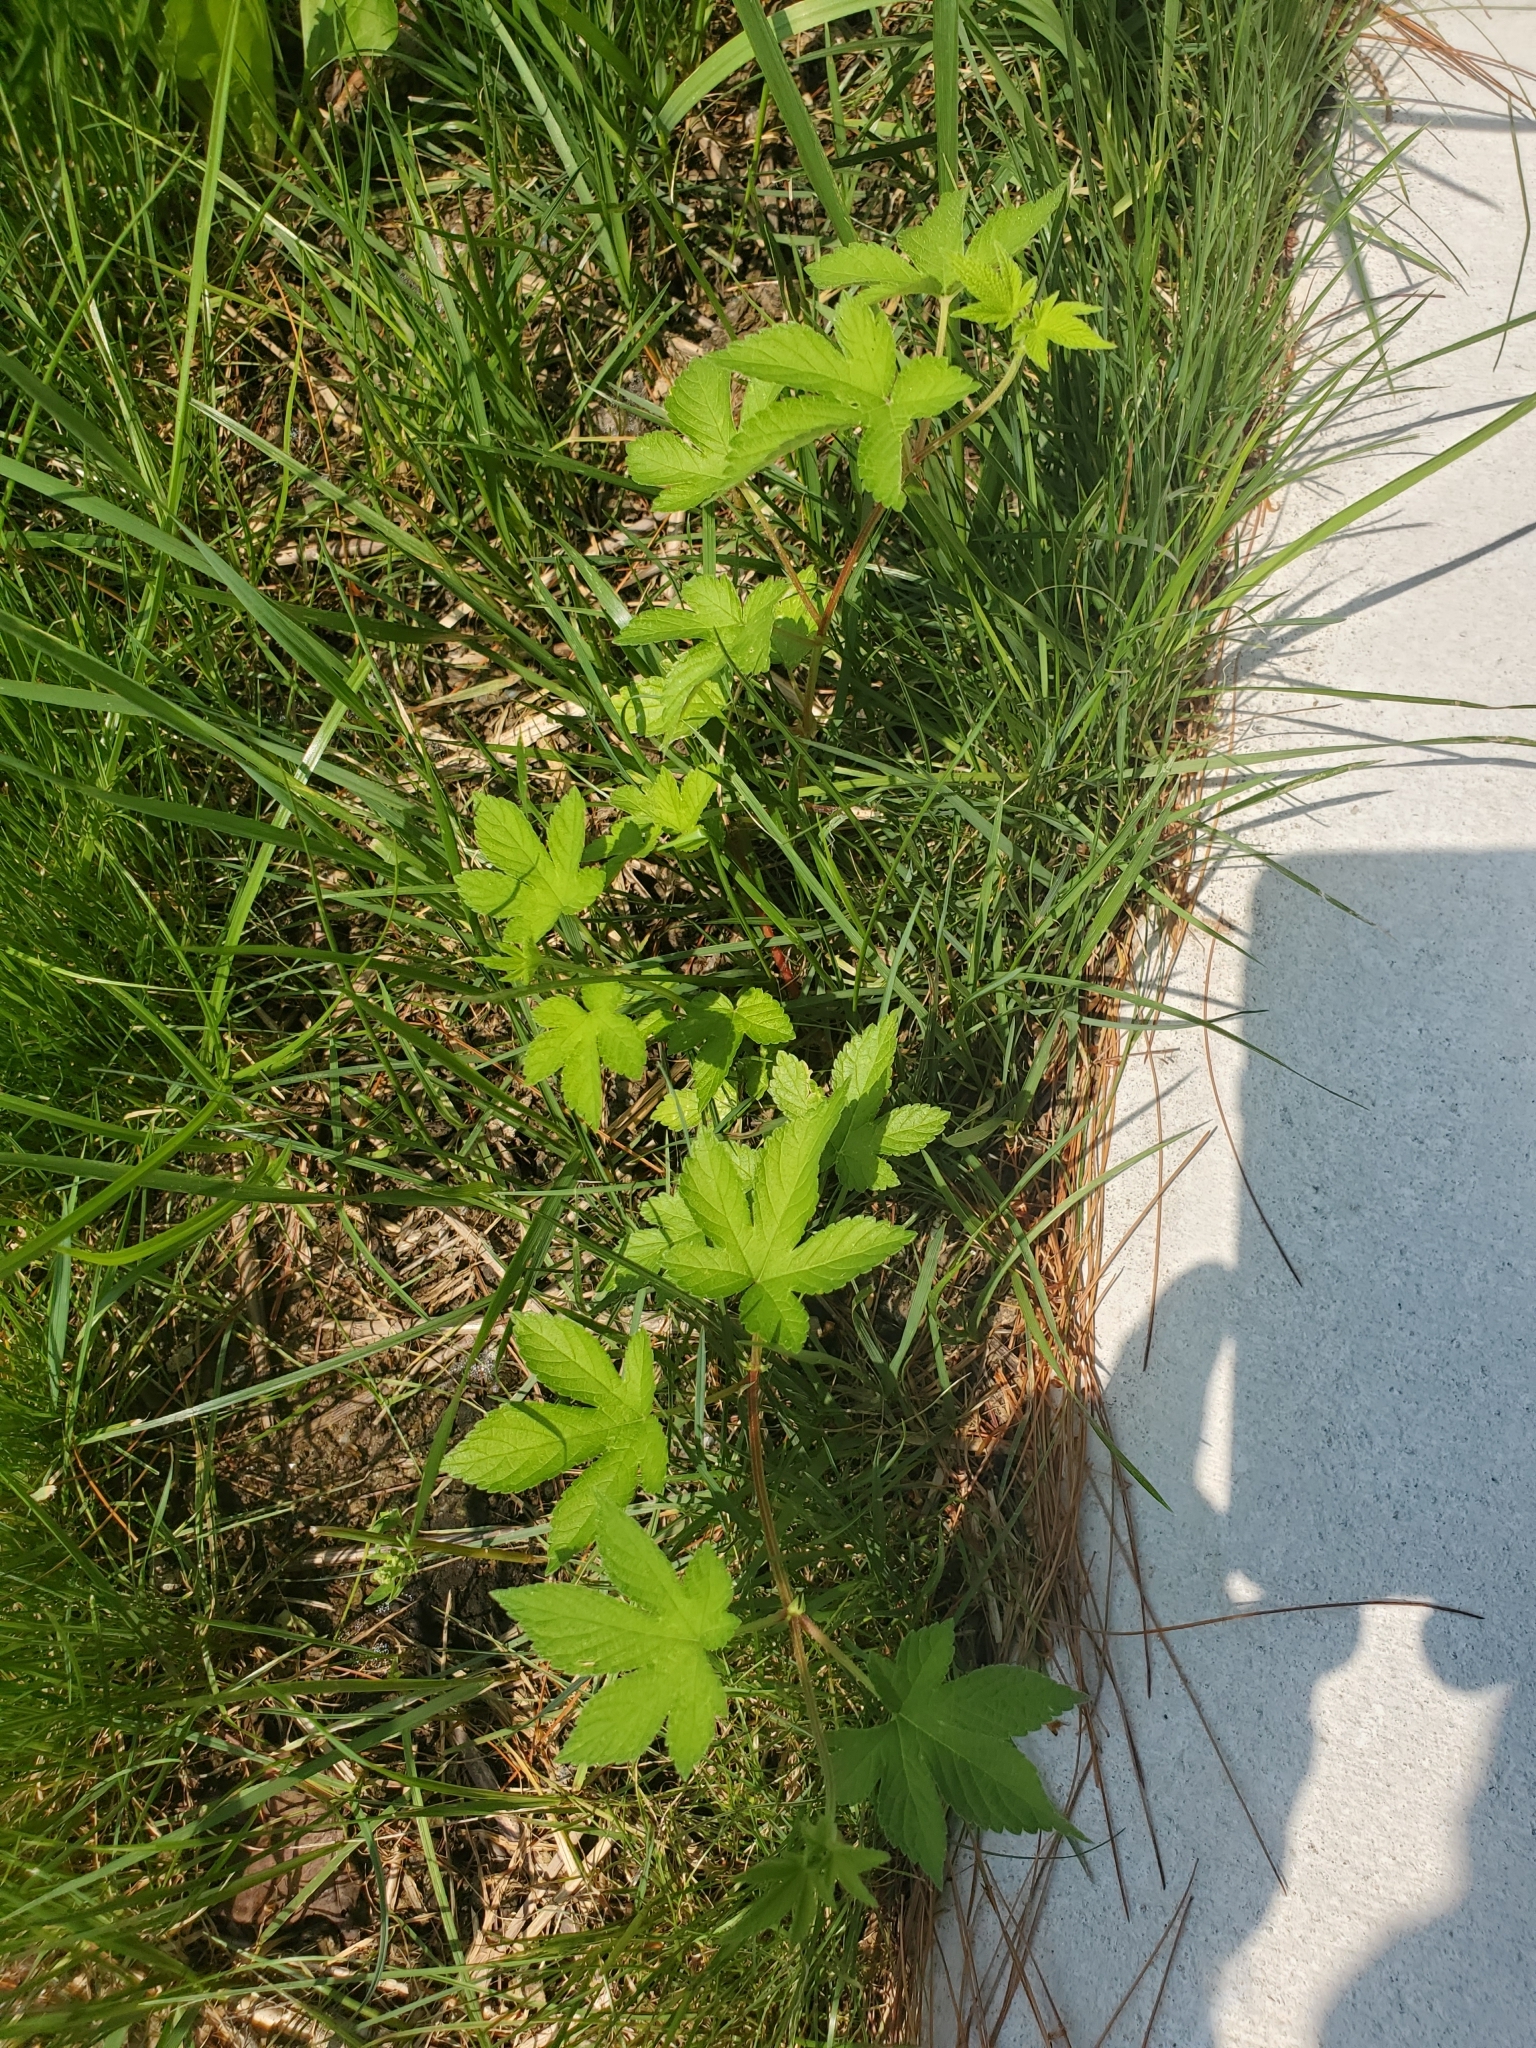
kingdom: Plantae
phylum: Tracheophyta
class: Magnoliopsida
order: Rosales
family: Cannabaceae
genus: Humulus
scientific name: Humulus scandens
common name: Japanese hop
